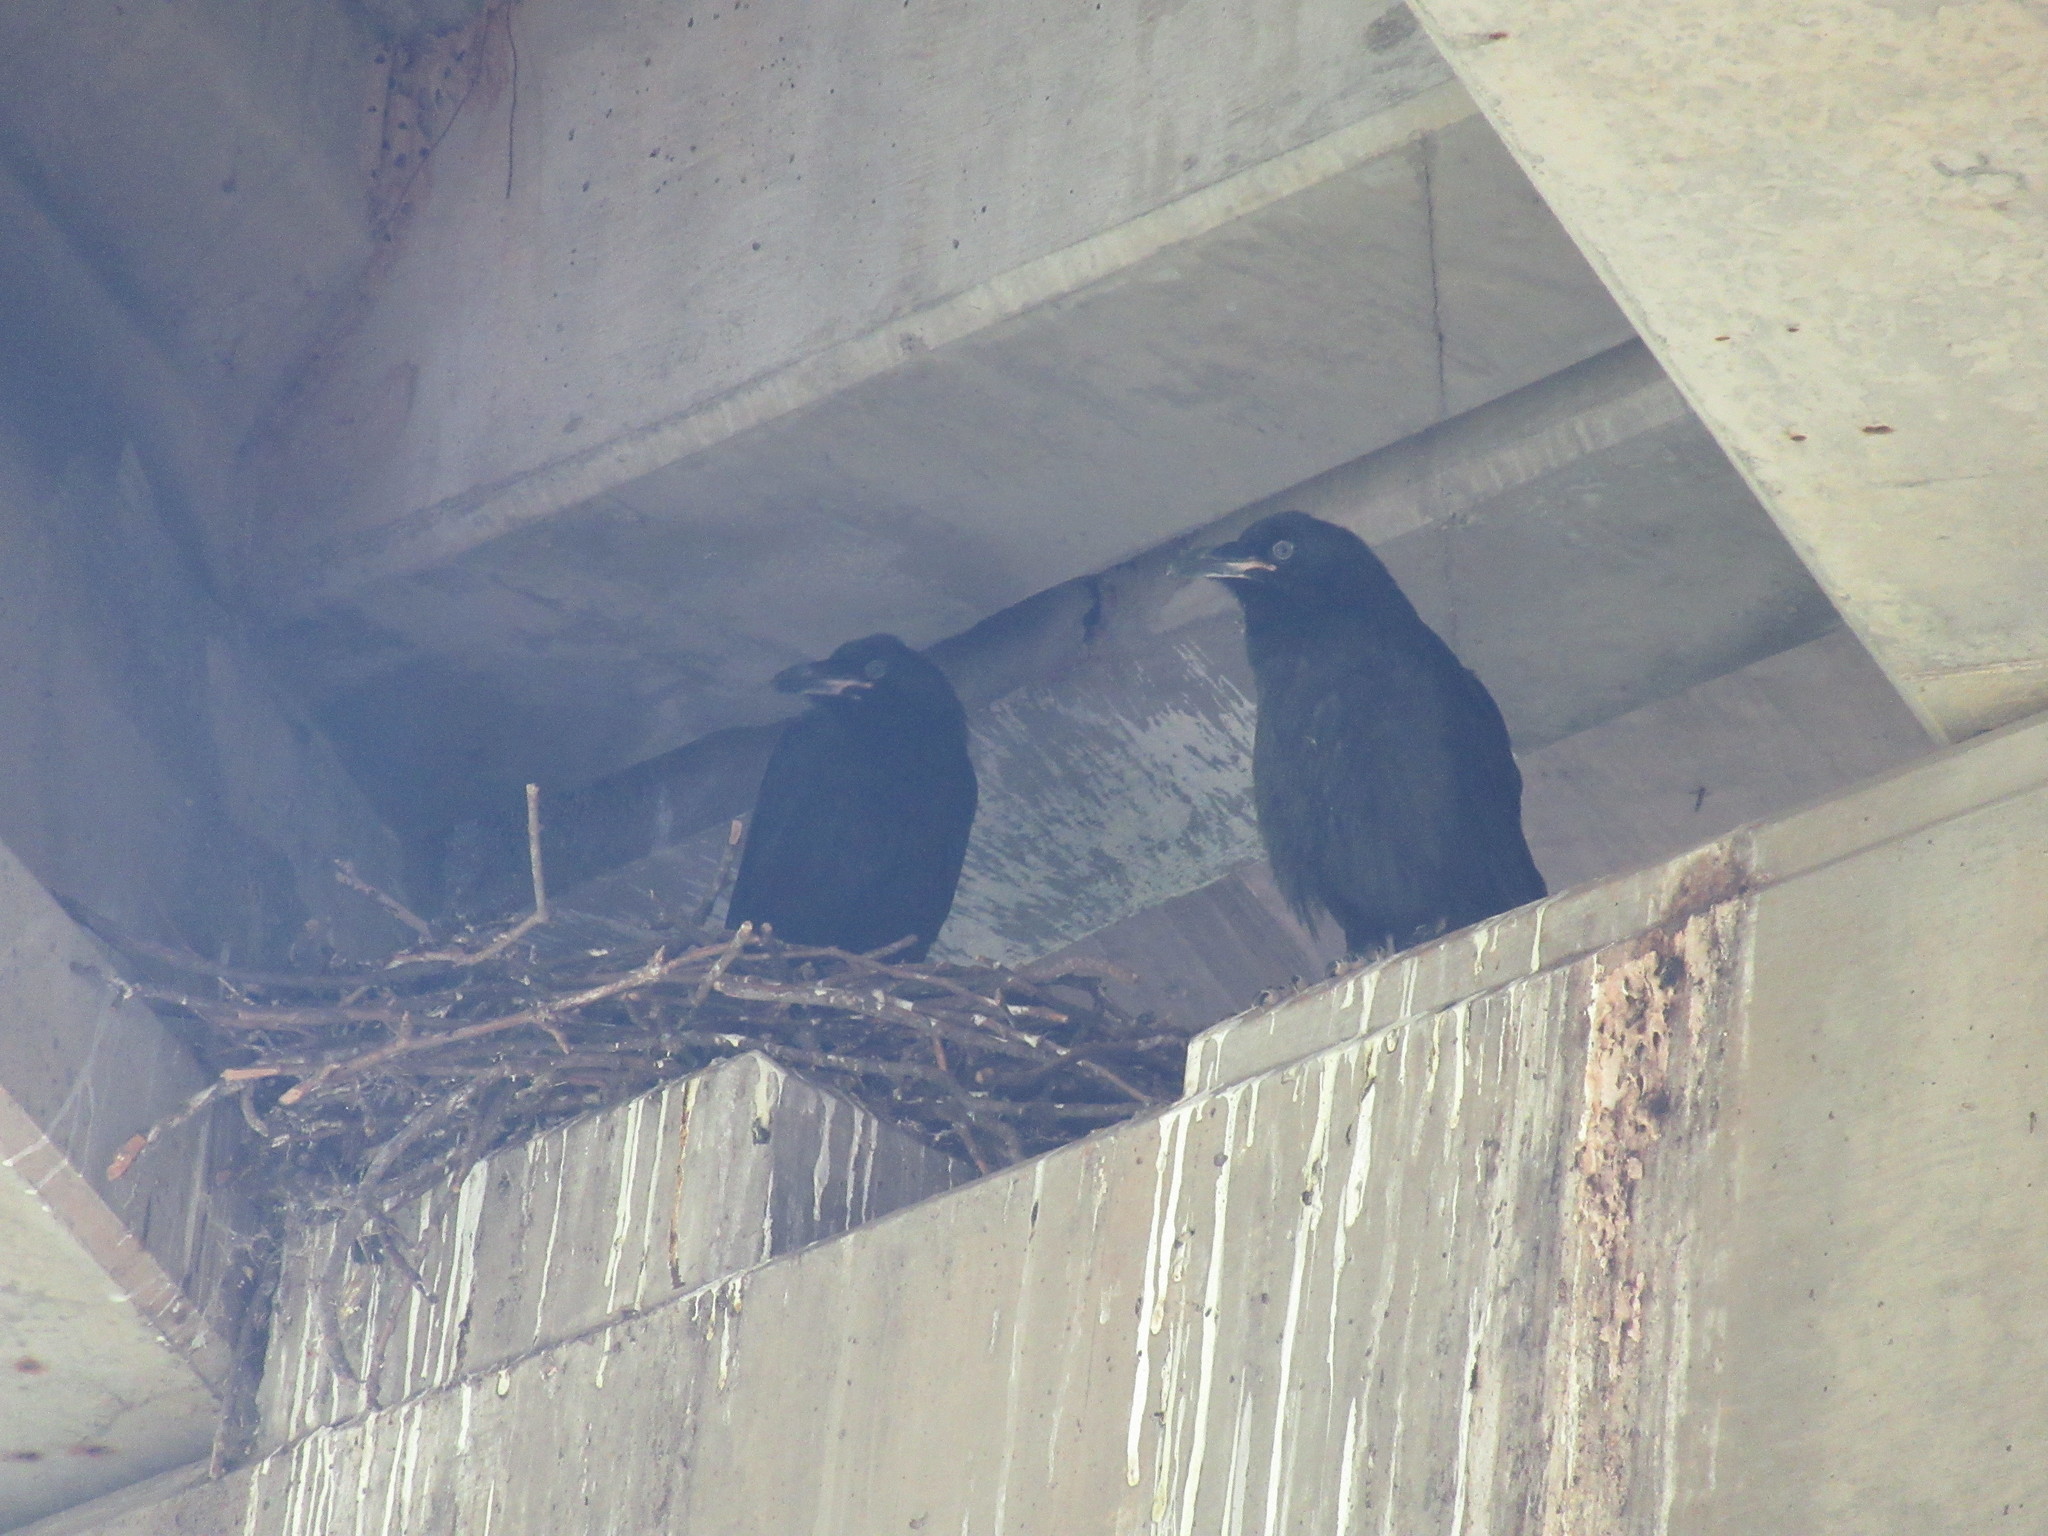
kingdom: Animalia
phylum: Chordata
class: Aves
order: Passeriformes
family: Corvidae
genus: Corvus
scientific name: Corvus corax
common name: Common raven
